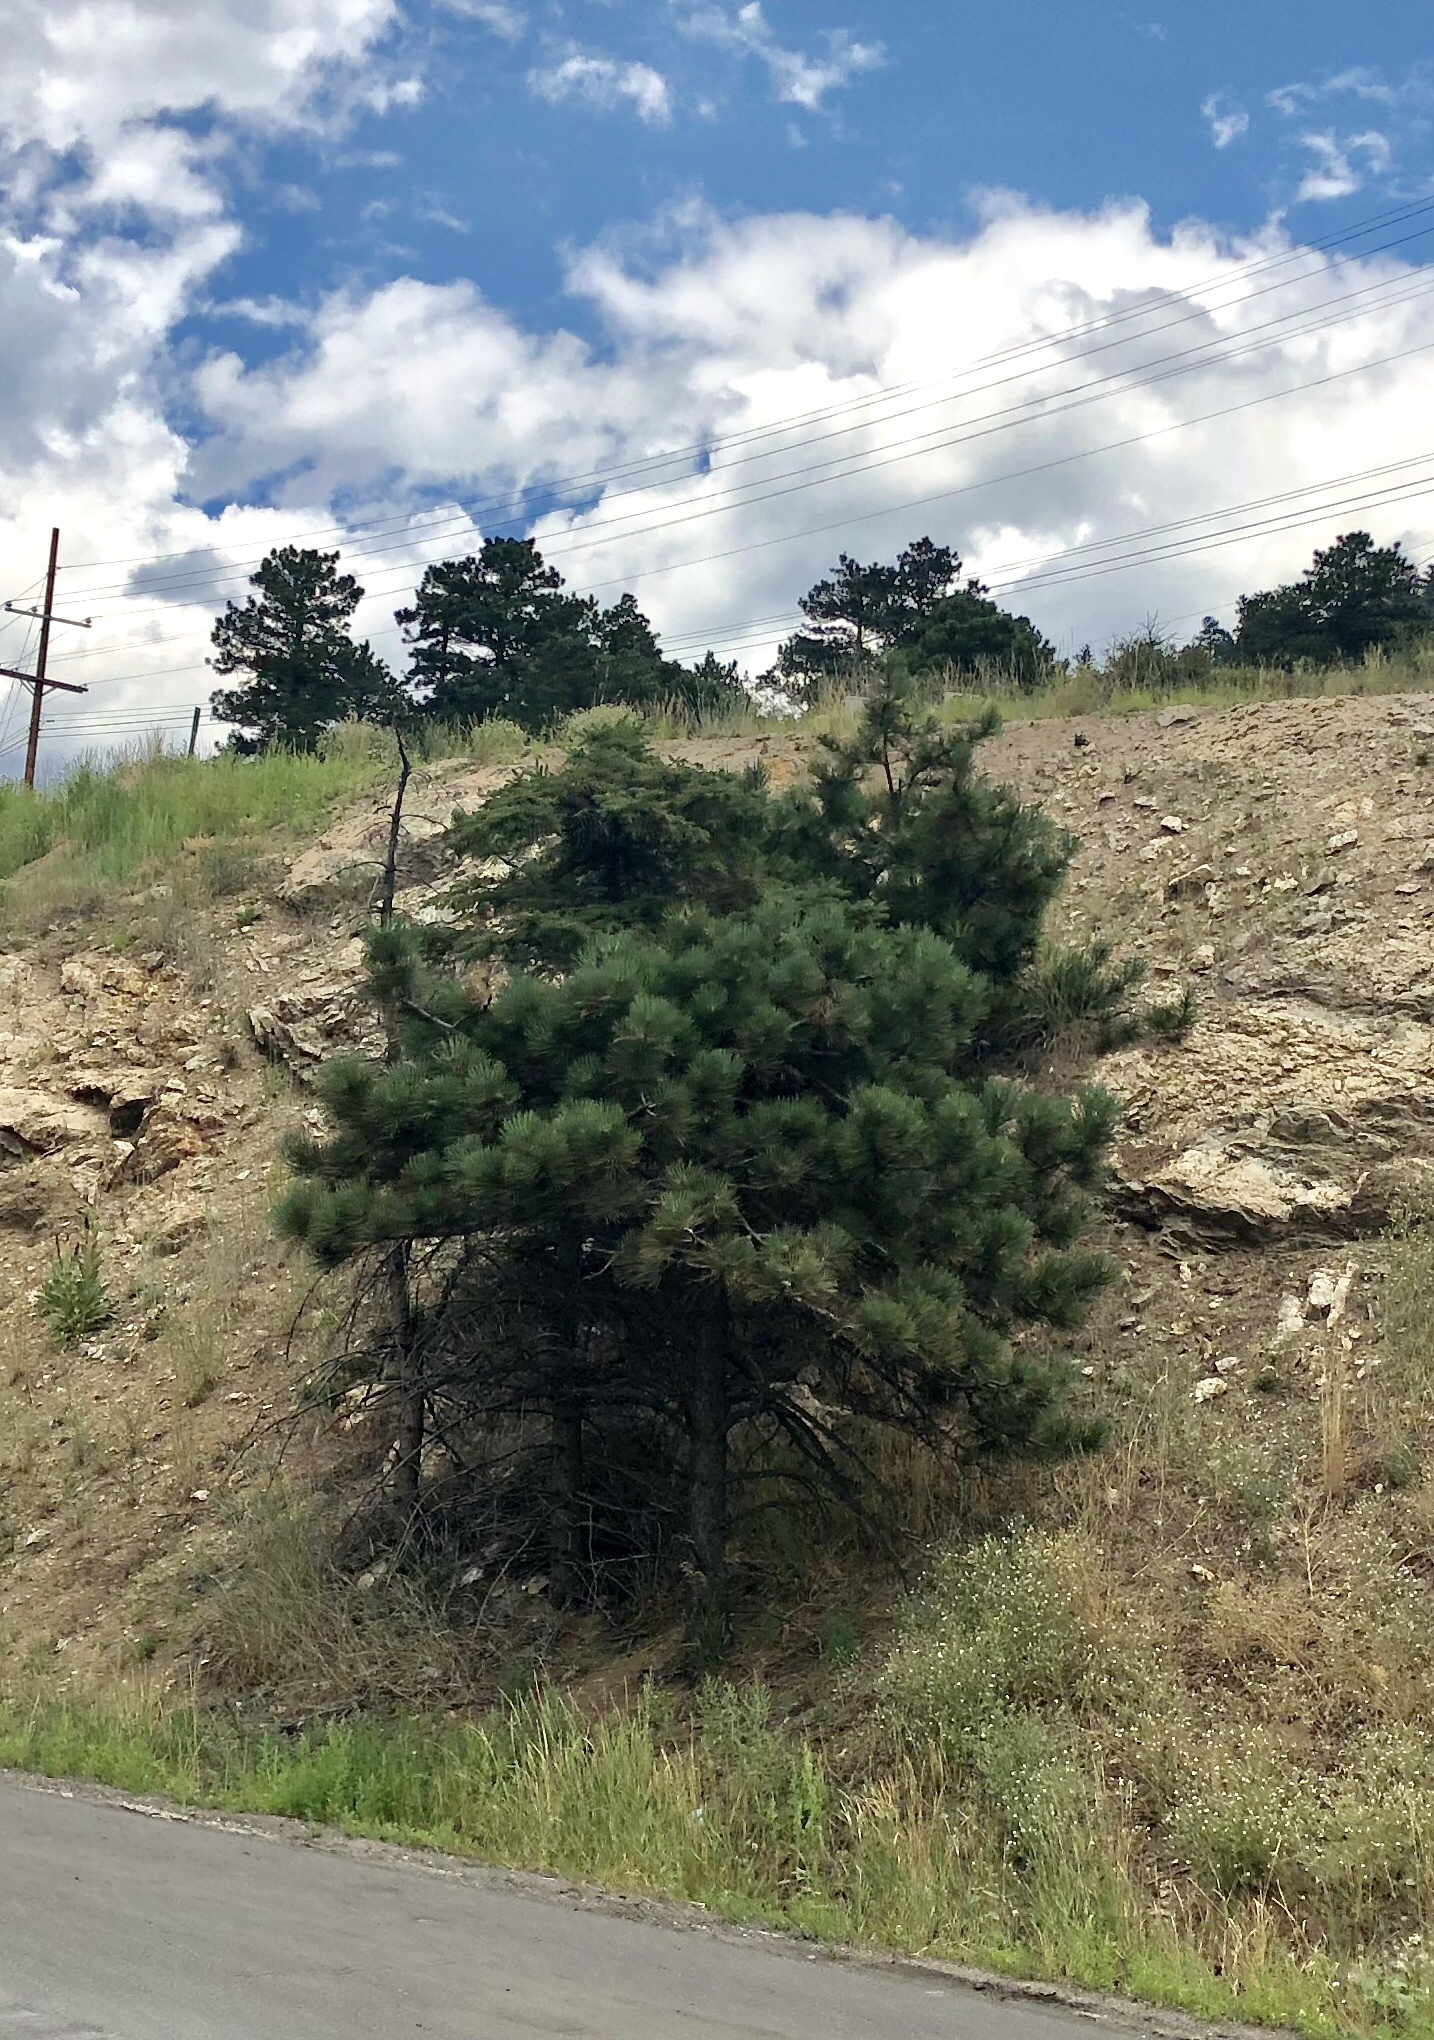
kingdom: Plantae
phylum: Tracheophyta
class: Pinopsida
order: Pinales
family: Pinaceae
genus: Pinus
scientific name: Pinus ponderosa
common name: Western yellow-pine
